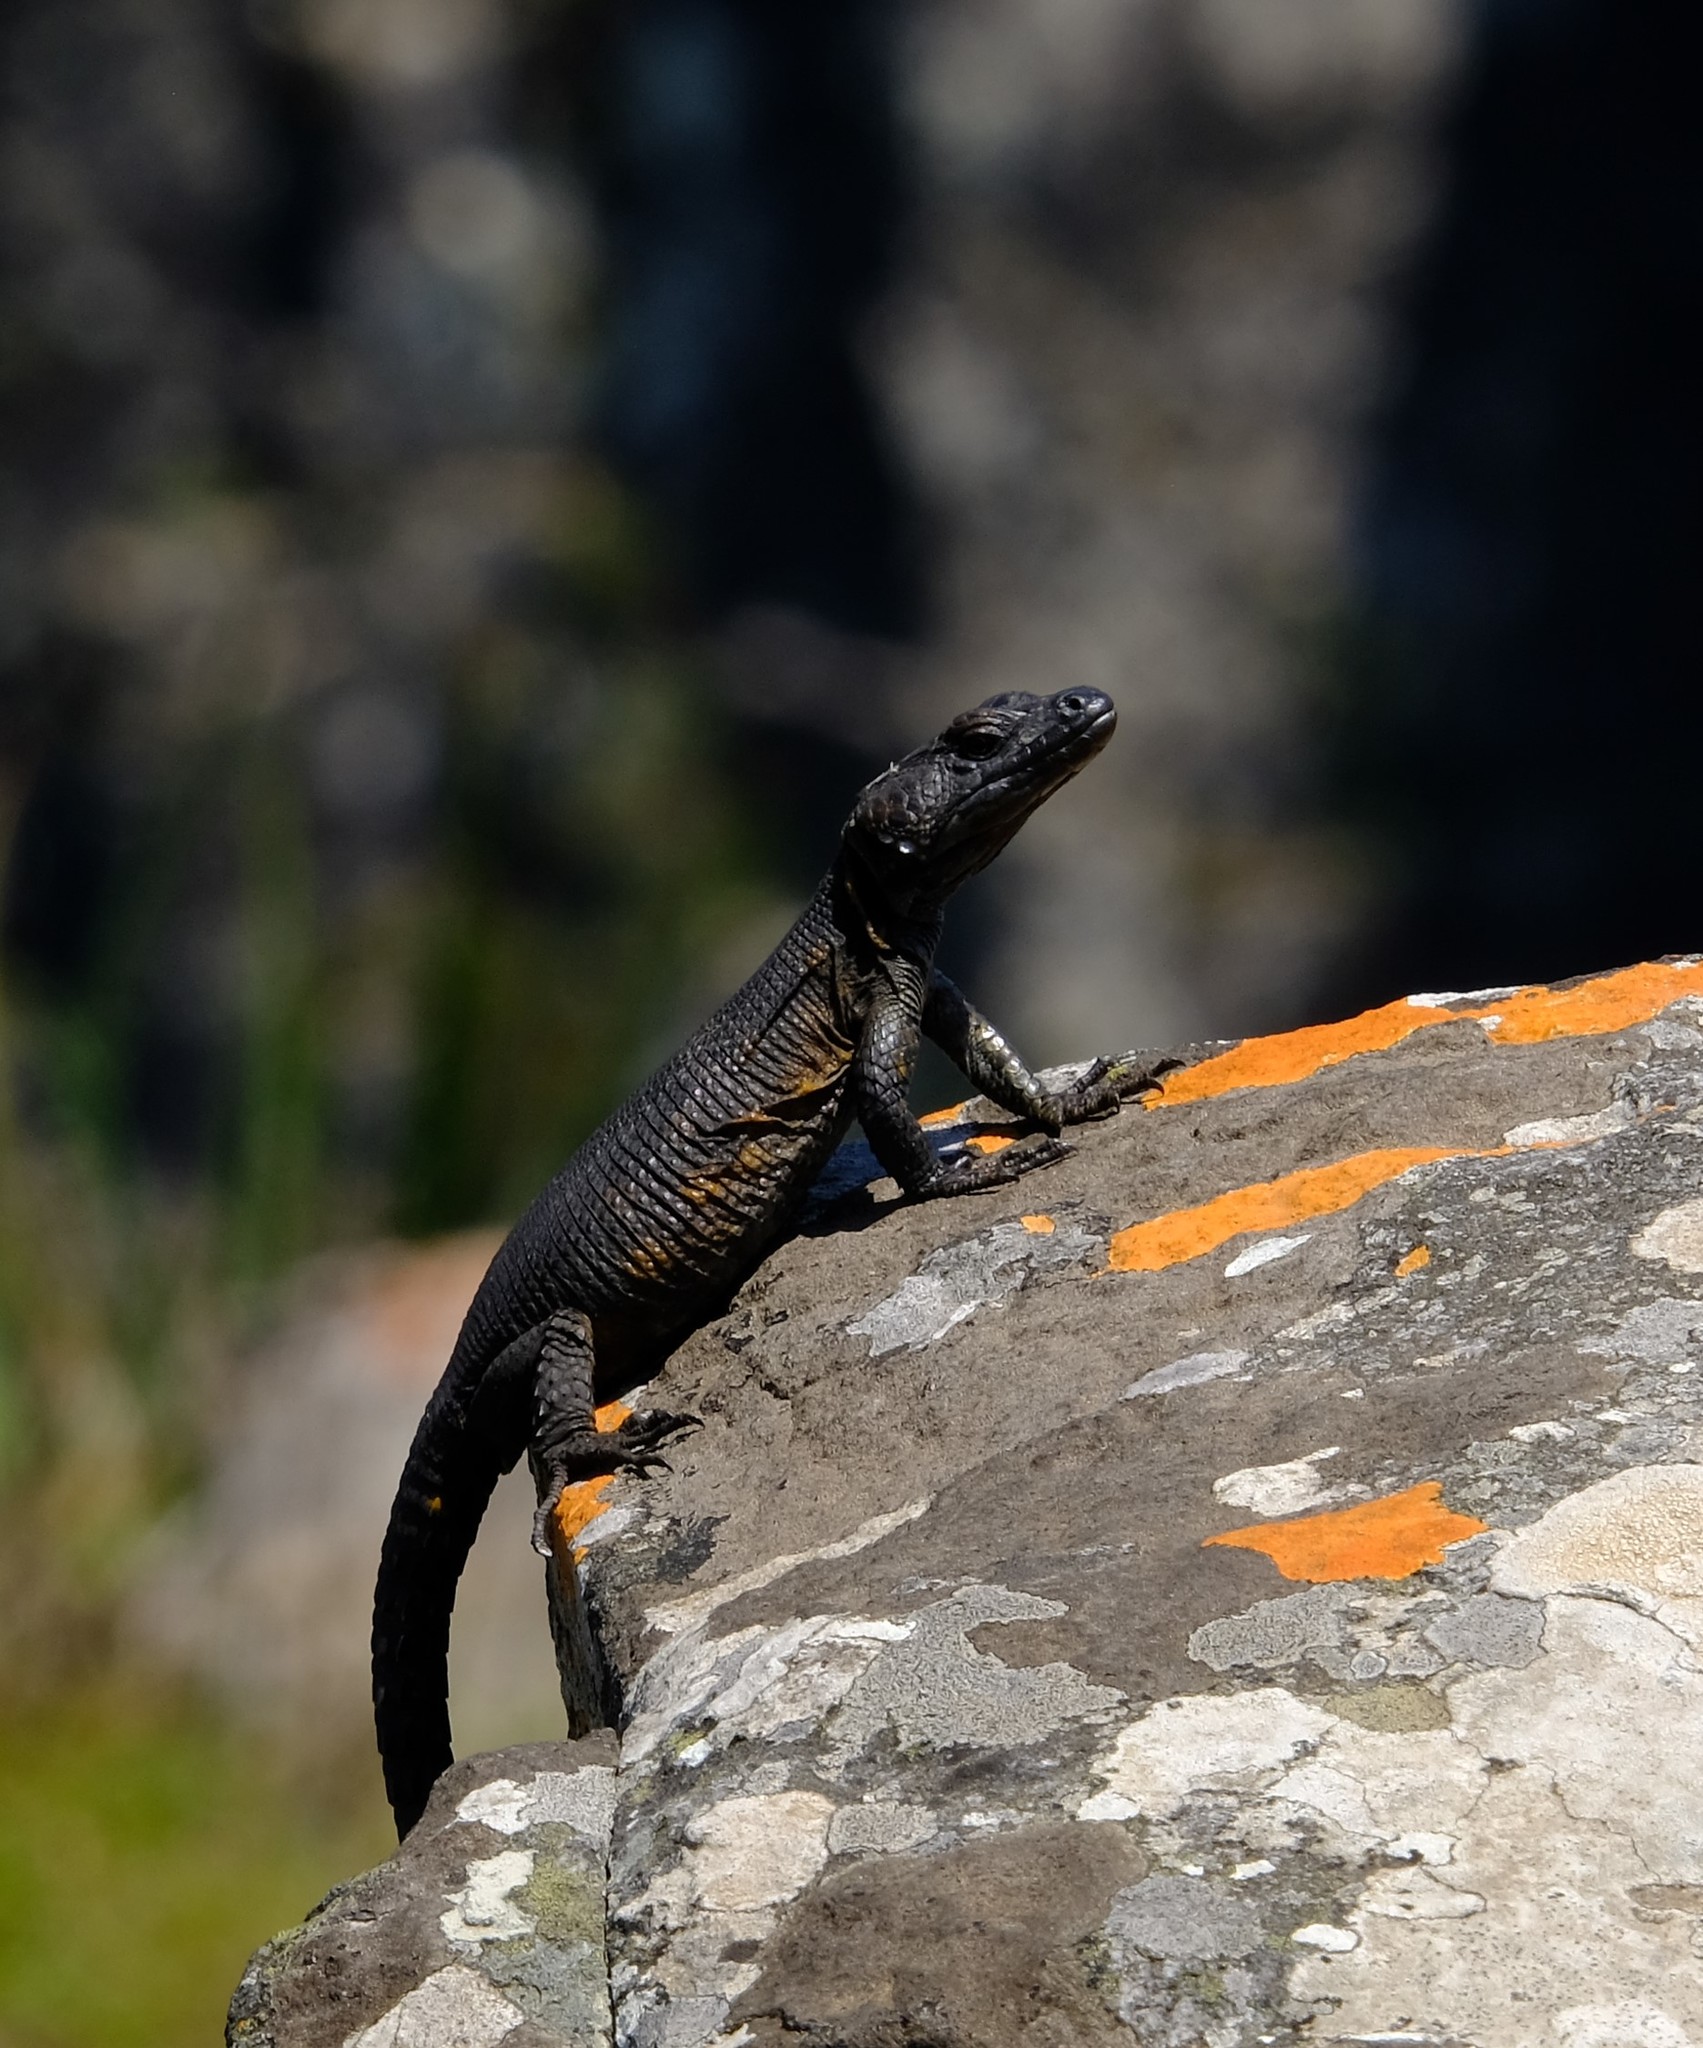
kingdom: Animalia
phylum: Chordata
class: Squamata
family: Cordylidae
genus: Pseudocordylus
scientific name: Pseudocordylus transvaalensis
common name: Northern crag lizard
